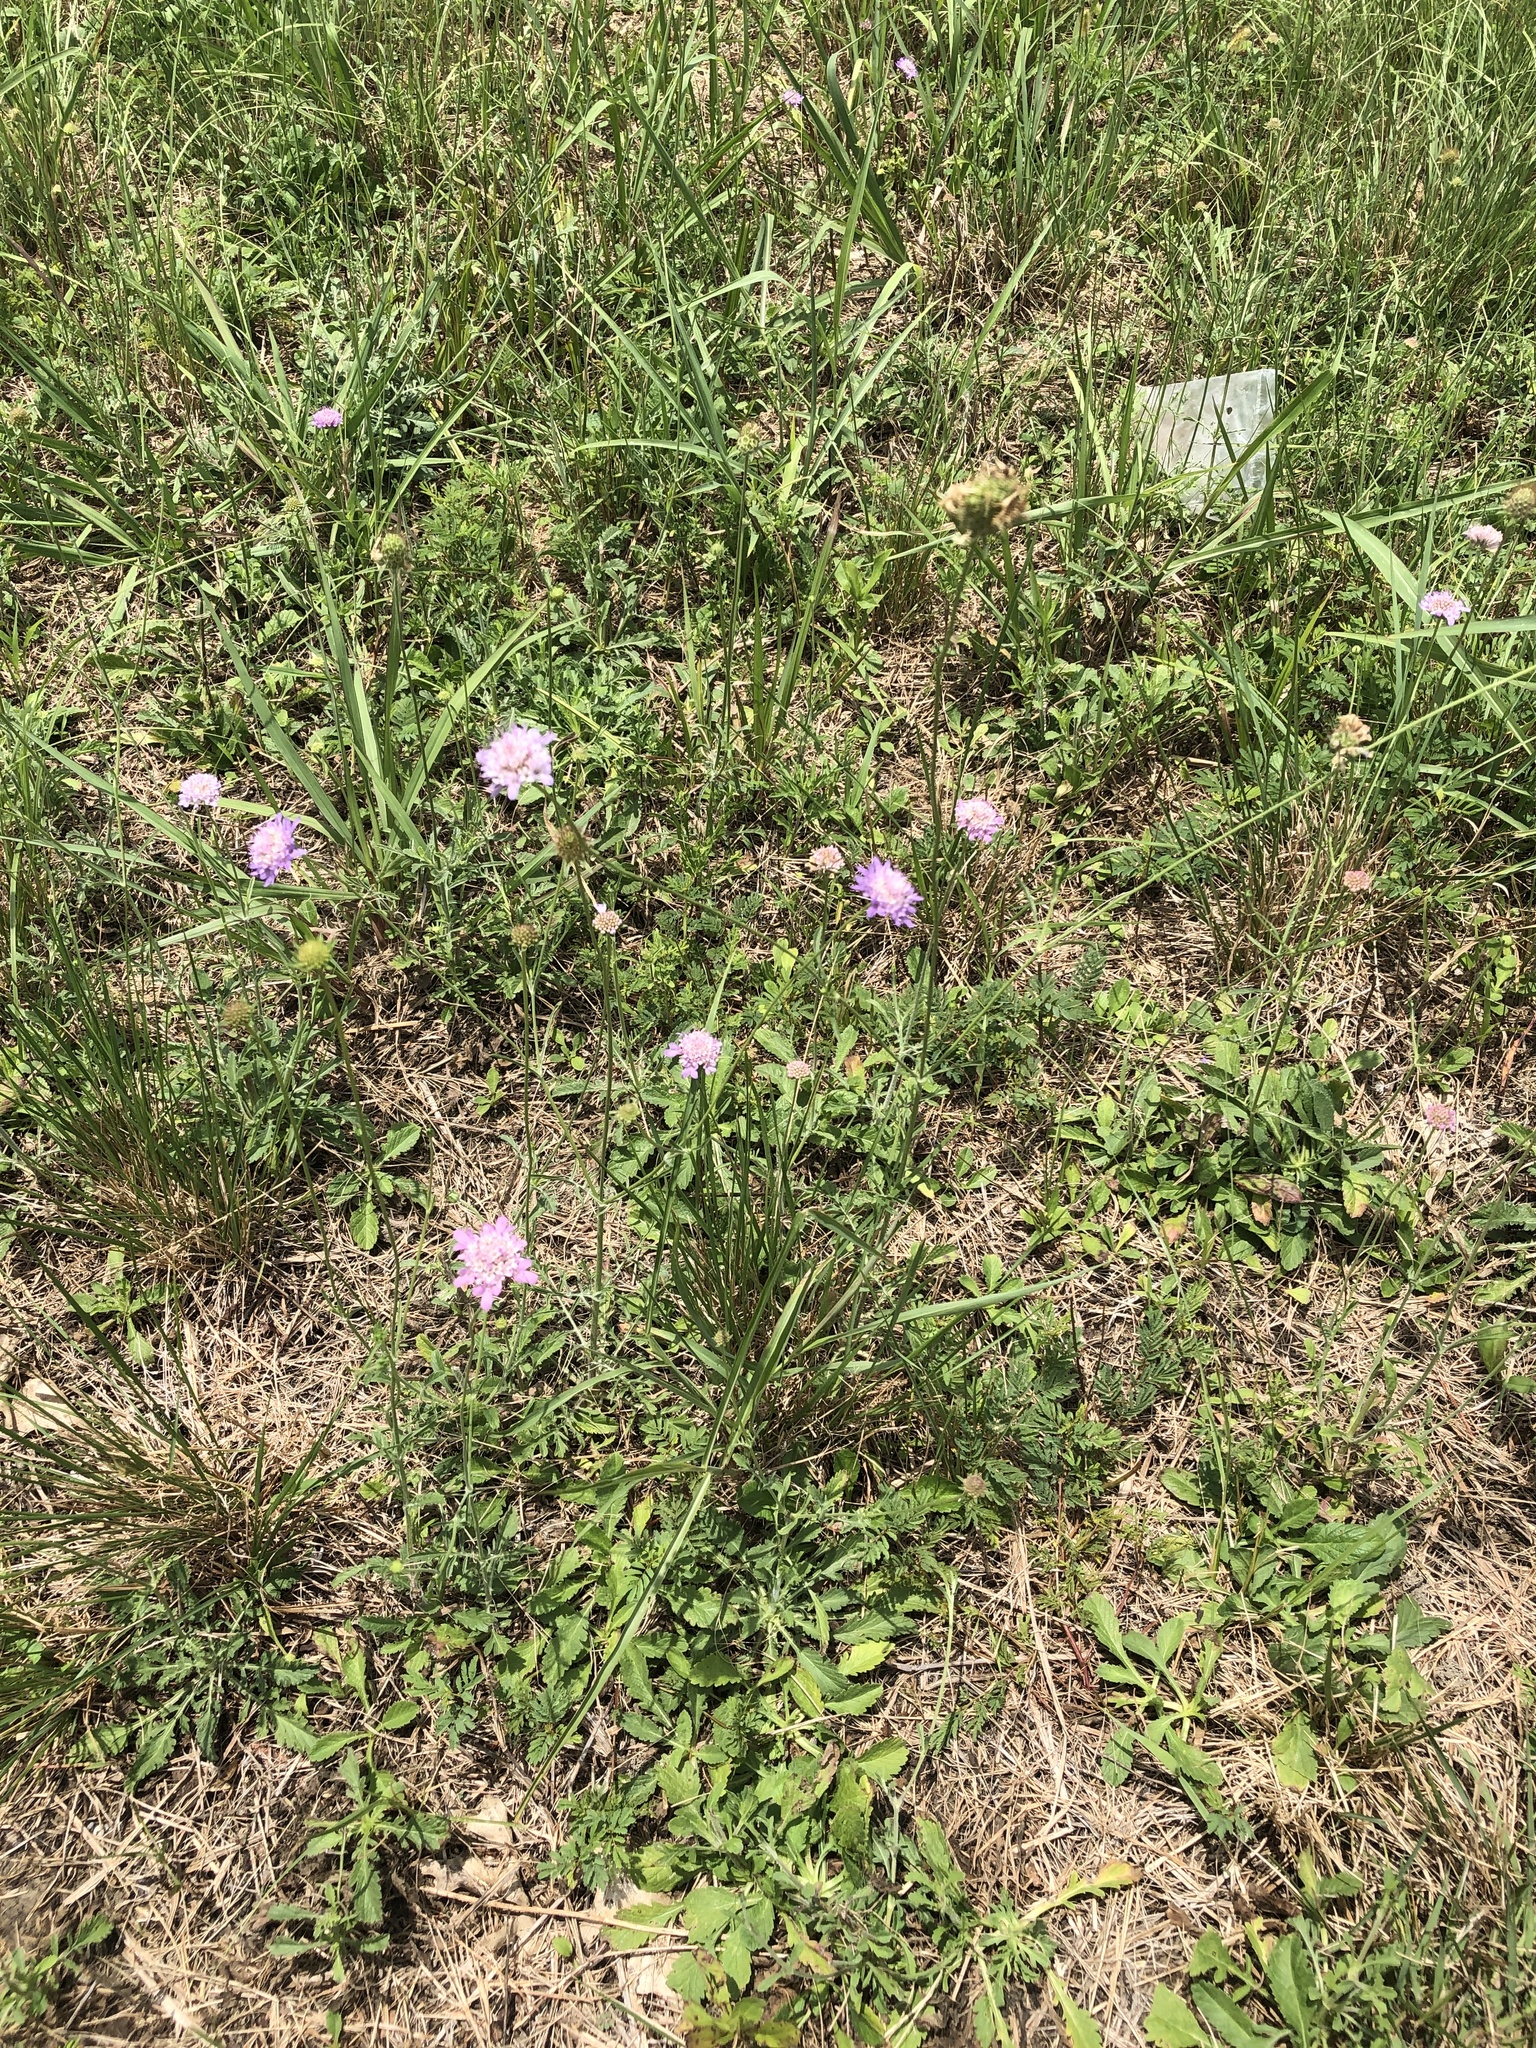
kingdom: Plantae
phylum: Tracheophyta
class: Magnoliopsida
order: Dipsacales
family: Caprifoliaceae
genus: Sixalix
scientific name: Sixalix atropurpurea
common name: Sweet scabious
